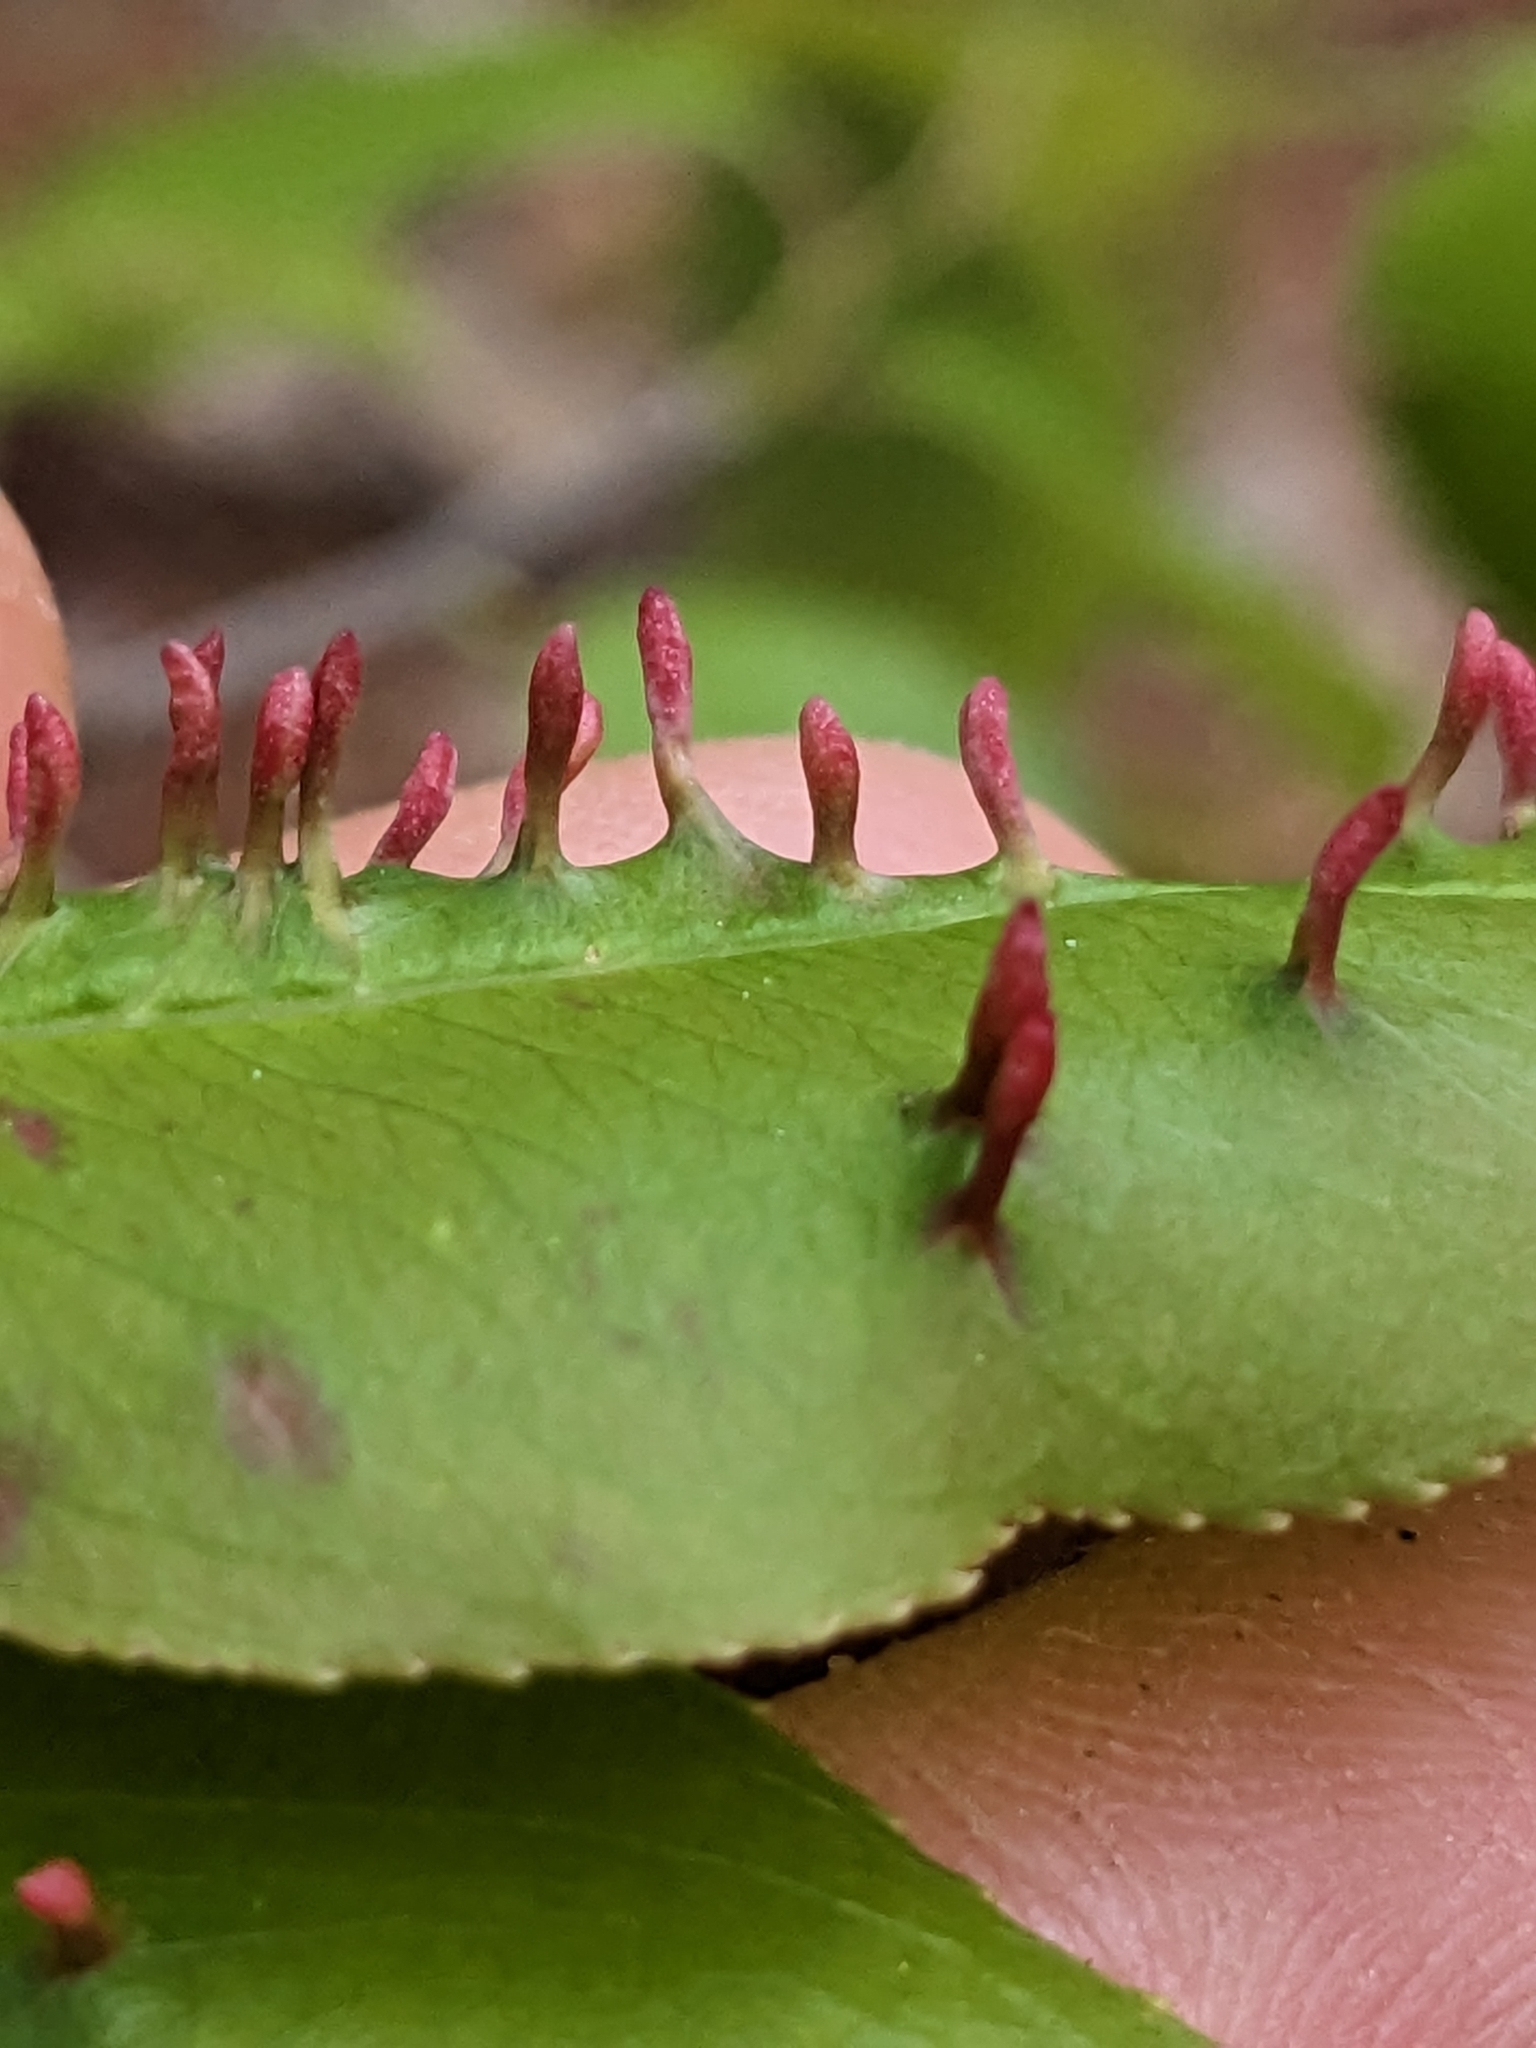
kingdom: Animalia
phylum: Arthropoda
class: Arachnida
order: Trombidiformes
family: Eriophyidae
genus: Eriophyes
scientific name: Eriophyes
